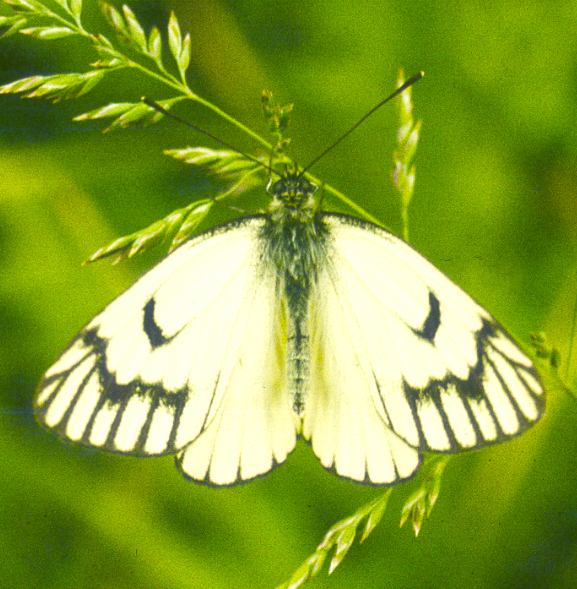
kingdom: Animalia
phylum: Arthropoda
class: Insecta
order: Lepidoptera
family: Pieridae
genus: Aporia
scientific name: Aporia leucodice
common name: Himalayan blackvein
